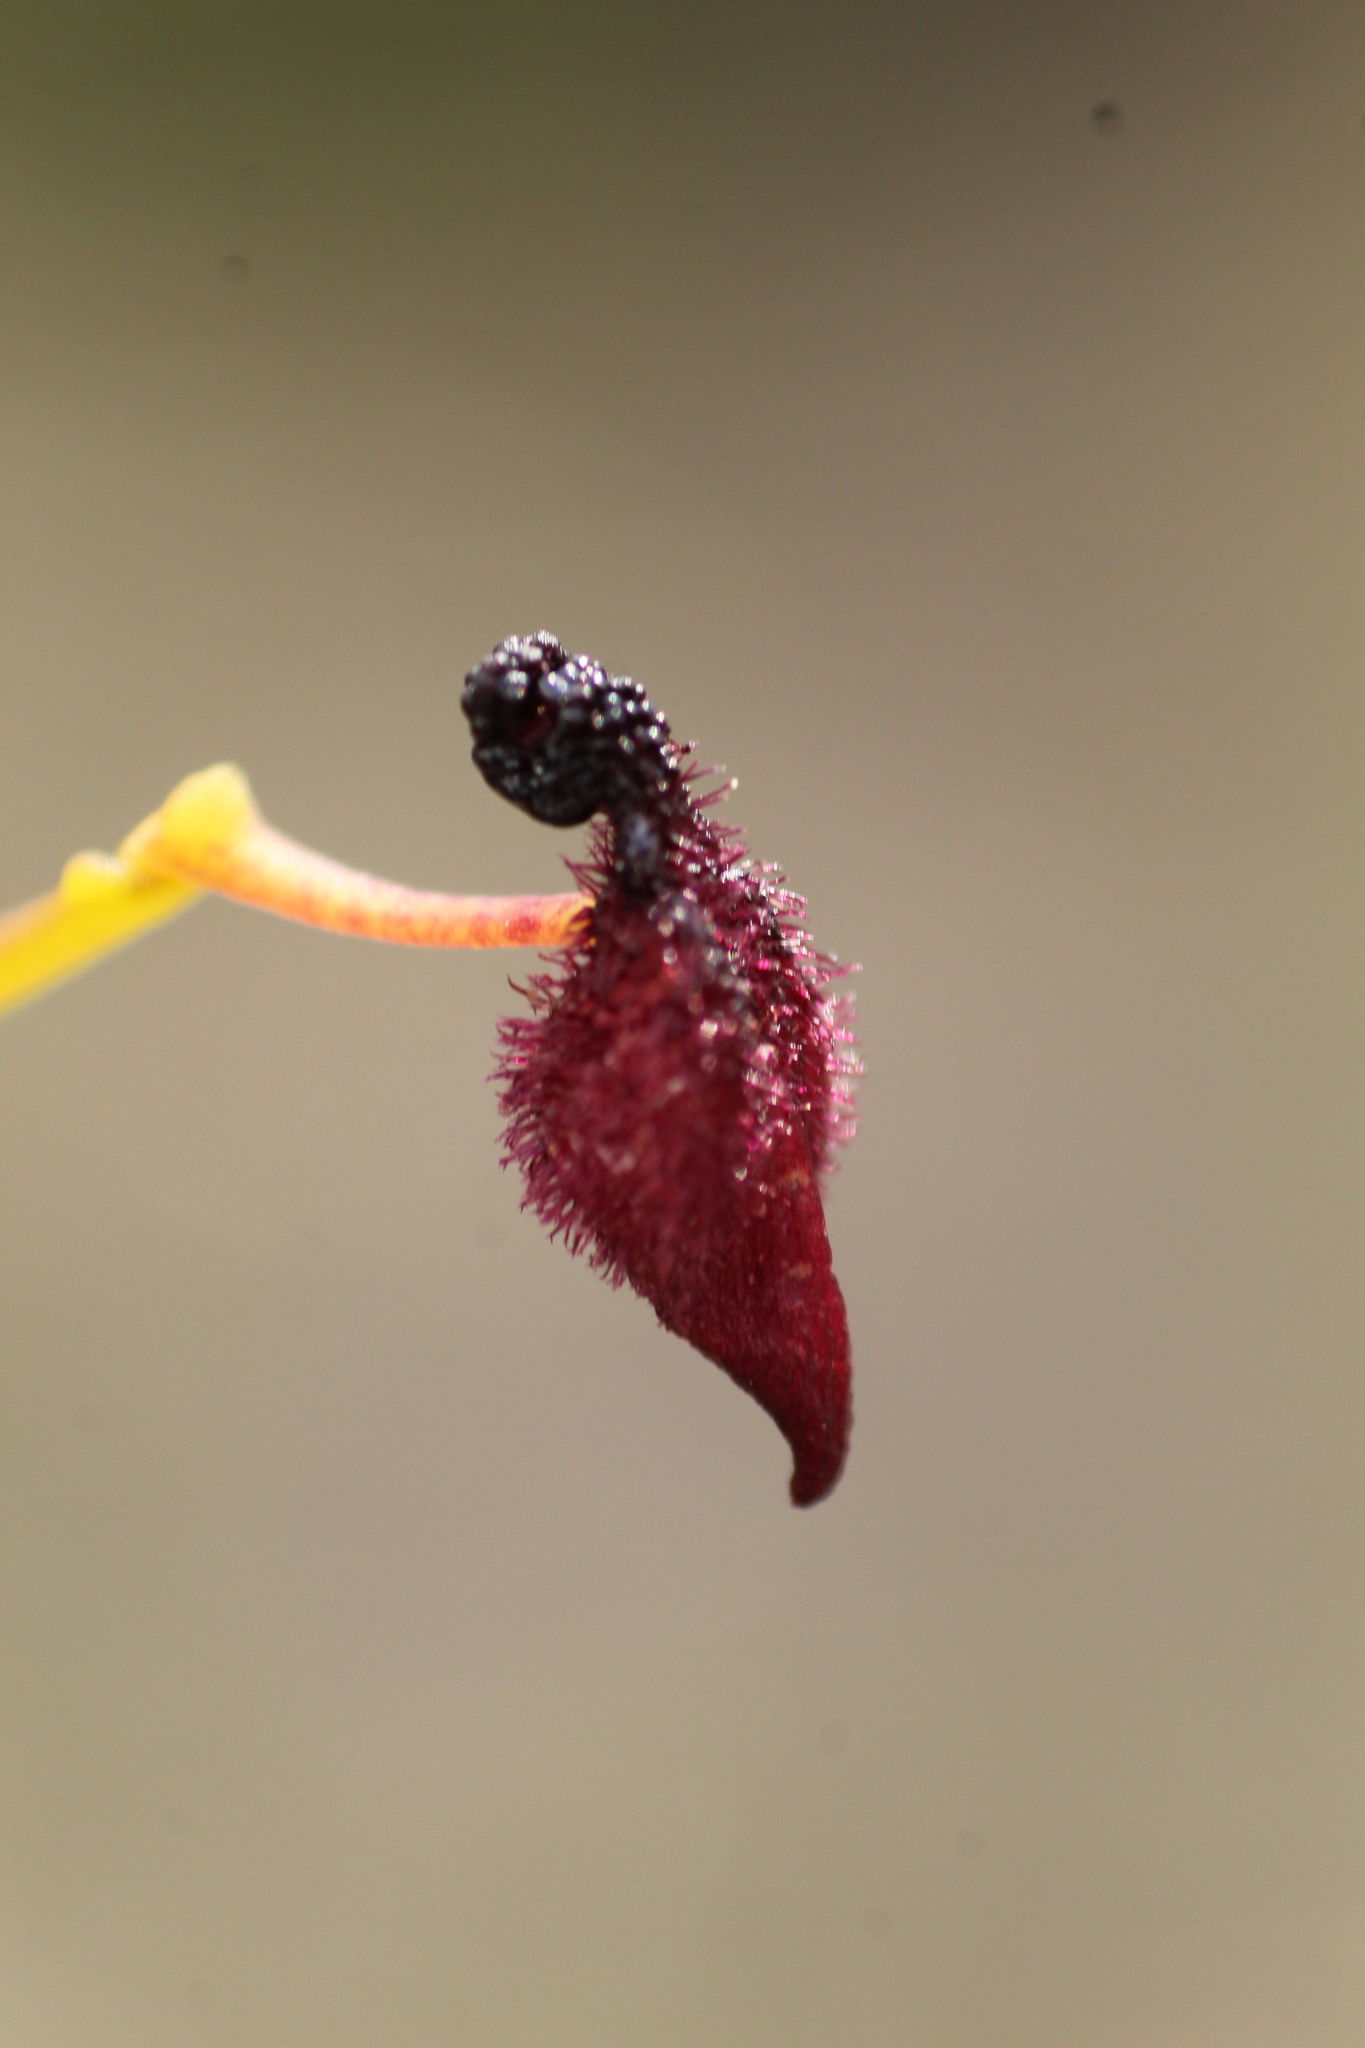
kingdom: Plantae
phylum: Tracheophyta
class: Liliopsida
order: Asparagales
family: Orchidaceae
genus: Drakaea
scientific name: Drakaea glyptodon
